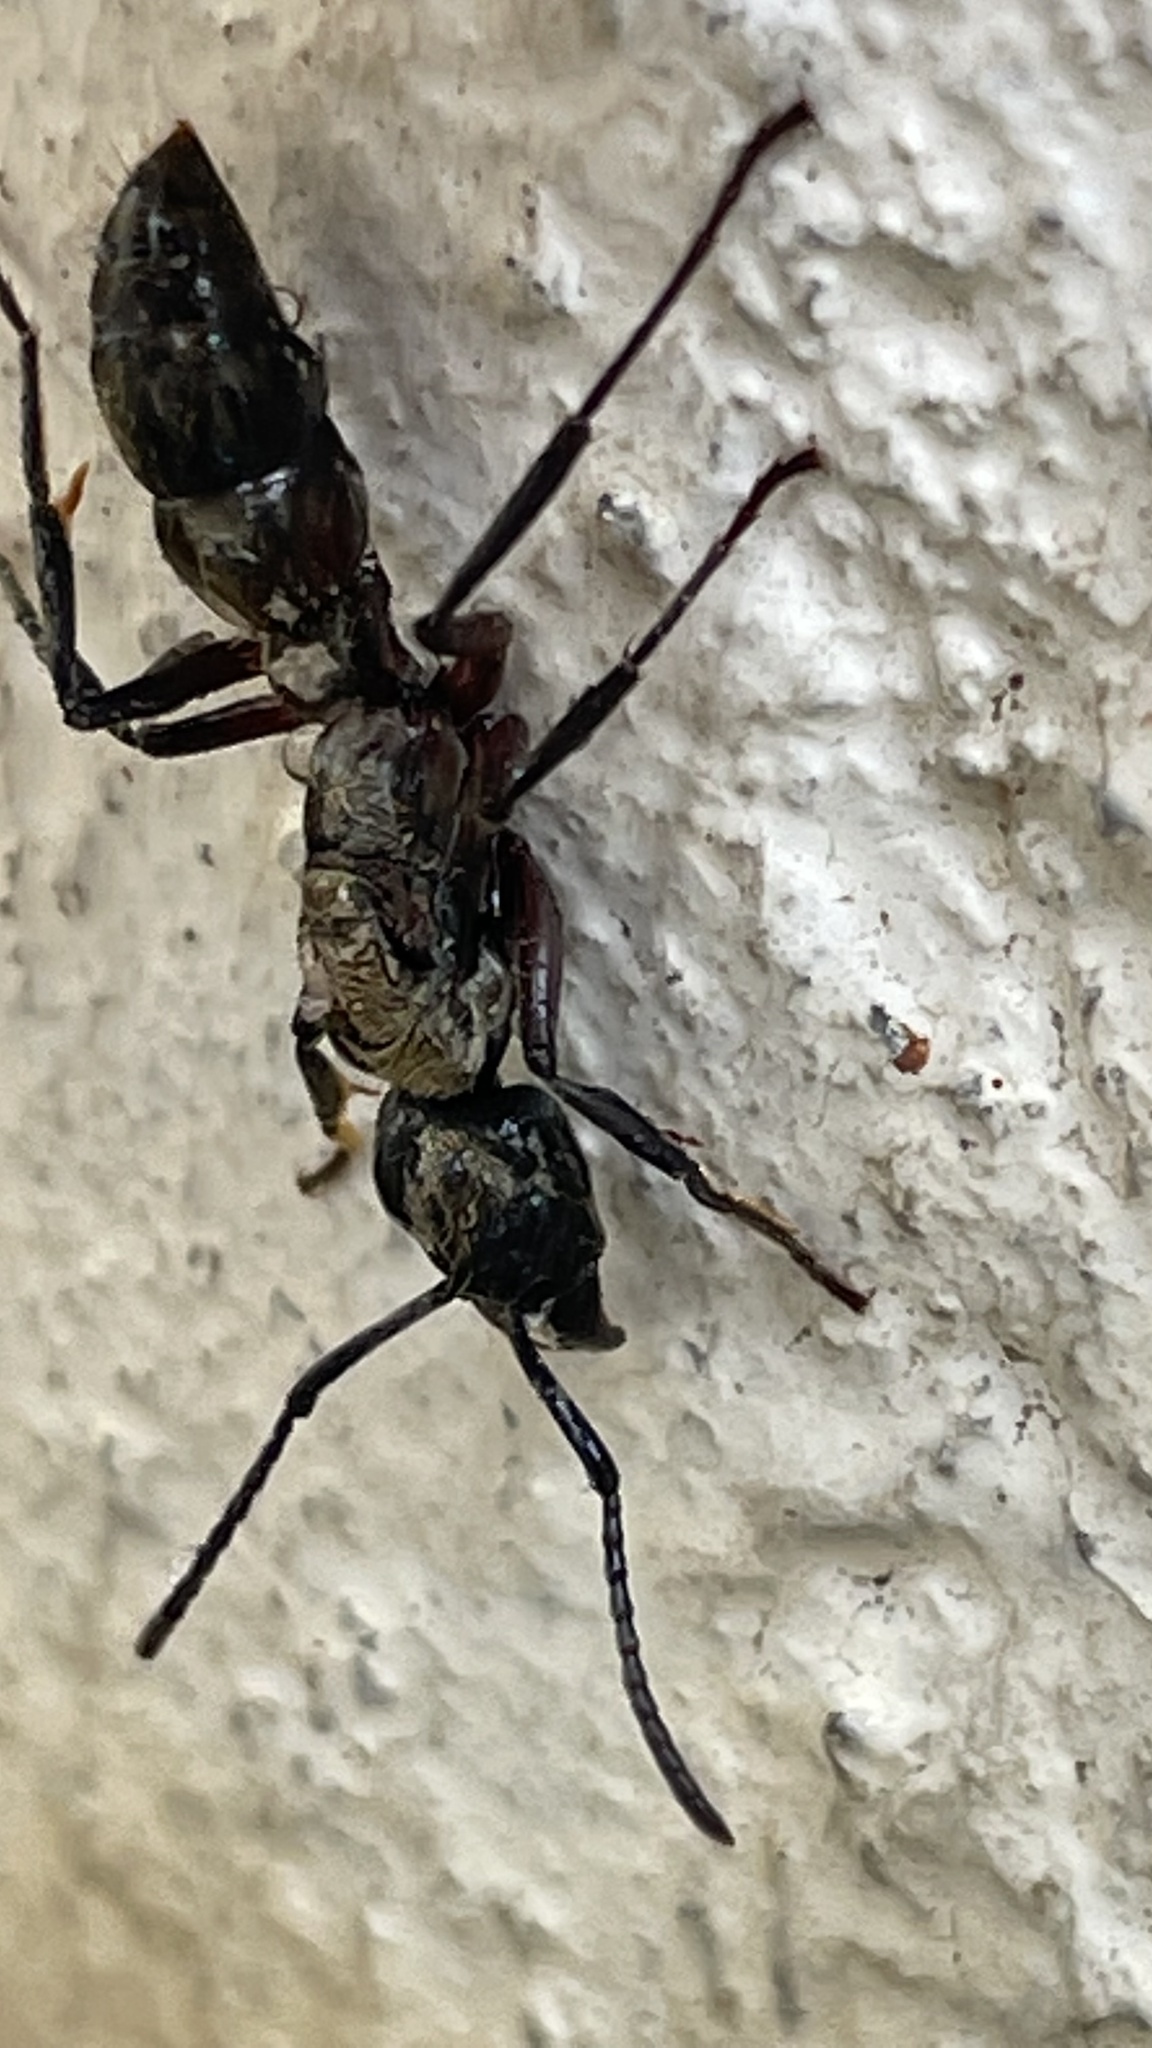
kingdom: Animalia
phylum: Arthropoda
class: Insecta
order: Hymenoptera
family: Formicidae
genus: Pachycondyla
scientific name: Pachycondyla villosa
